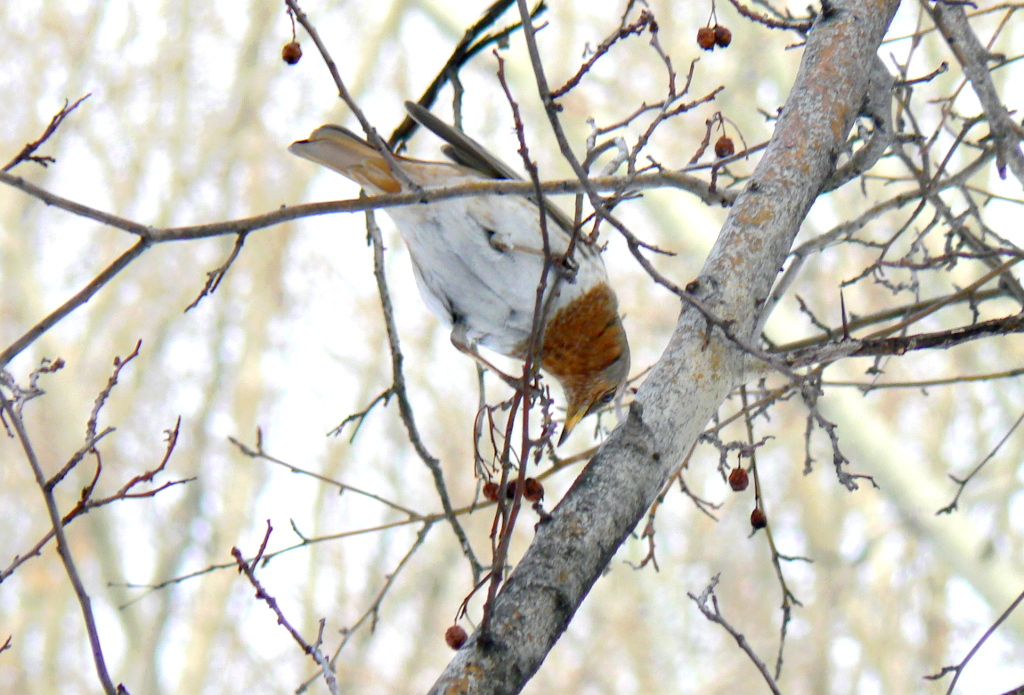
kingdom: Animalia
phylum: Chordata
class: Aves
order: Passeriformes
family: Turdidae
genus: Turdus
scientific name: Turdus ruficollis
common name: Red-throated thrush
